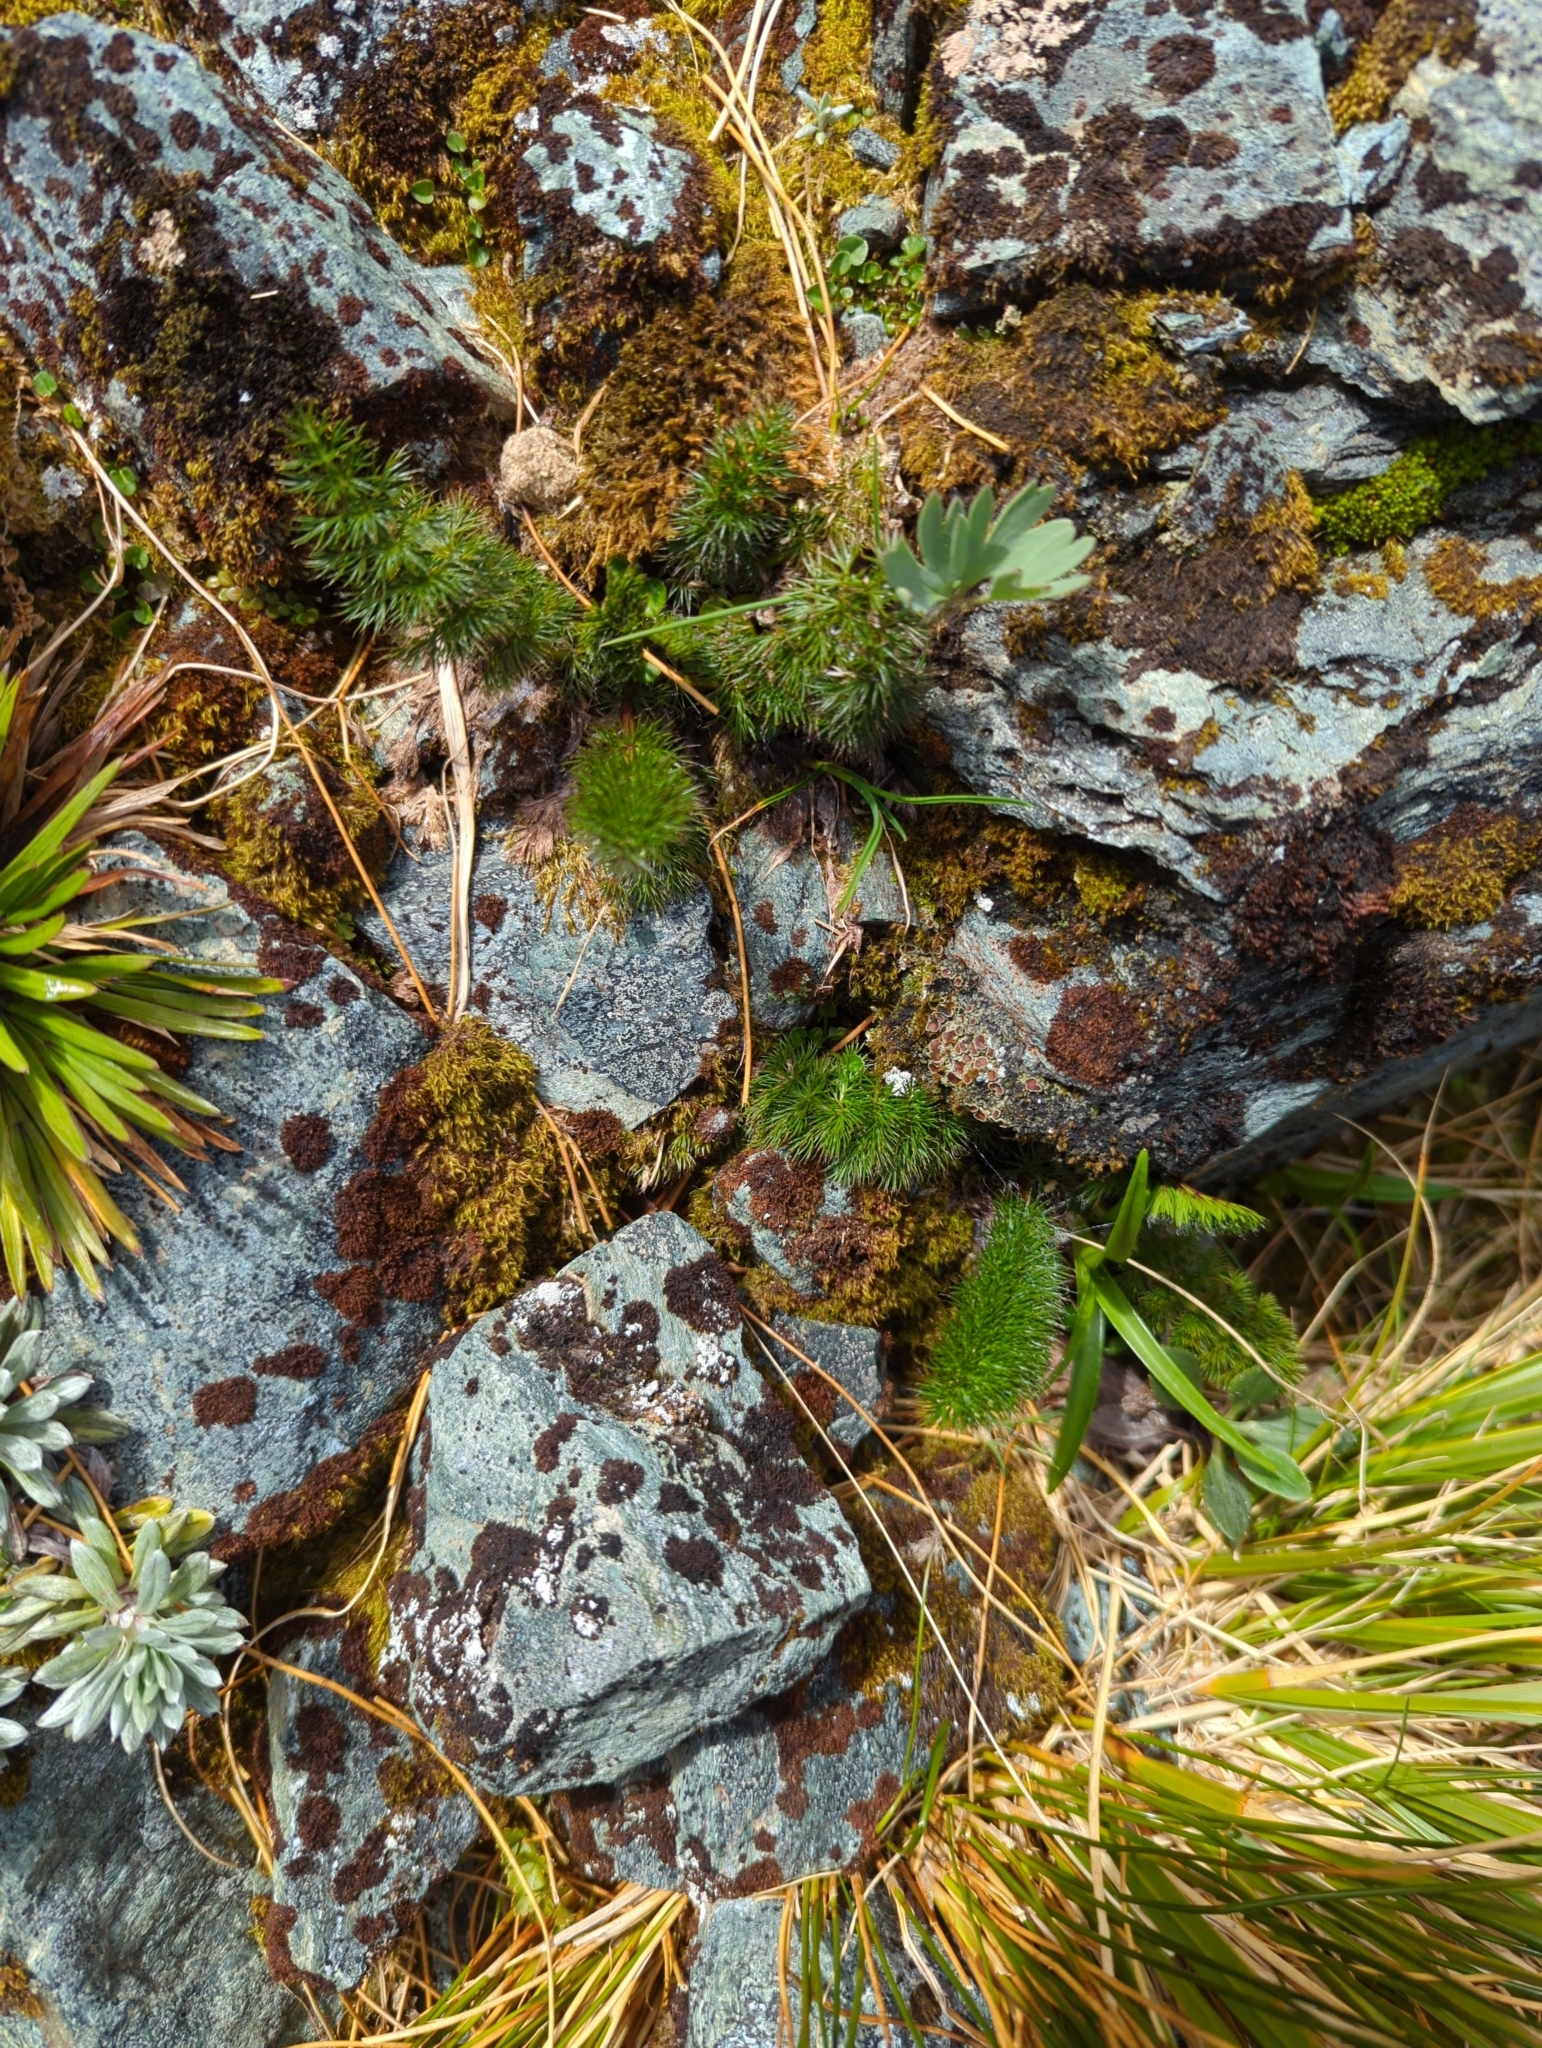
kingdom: Plantae
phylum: Tracheophyta
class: Magnoliopsida
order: Apiales
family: Apiaceae
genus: Anisotome
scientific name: Anisotome capillifolia
